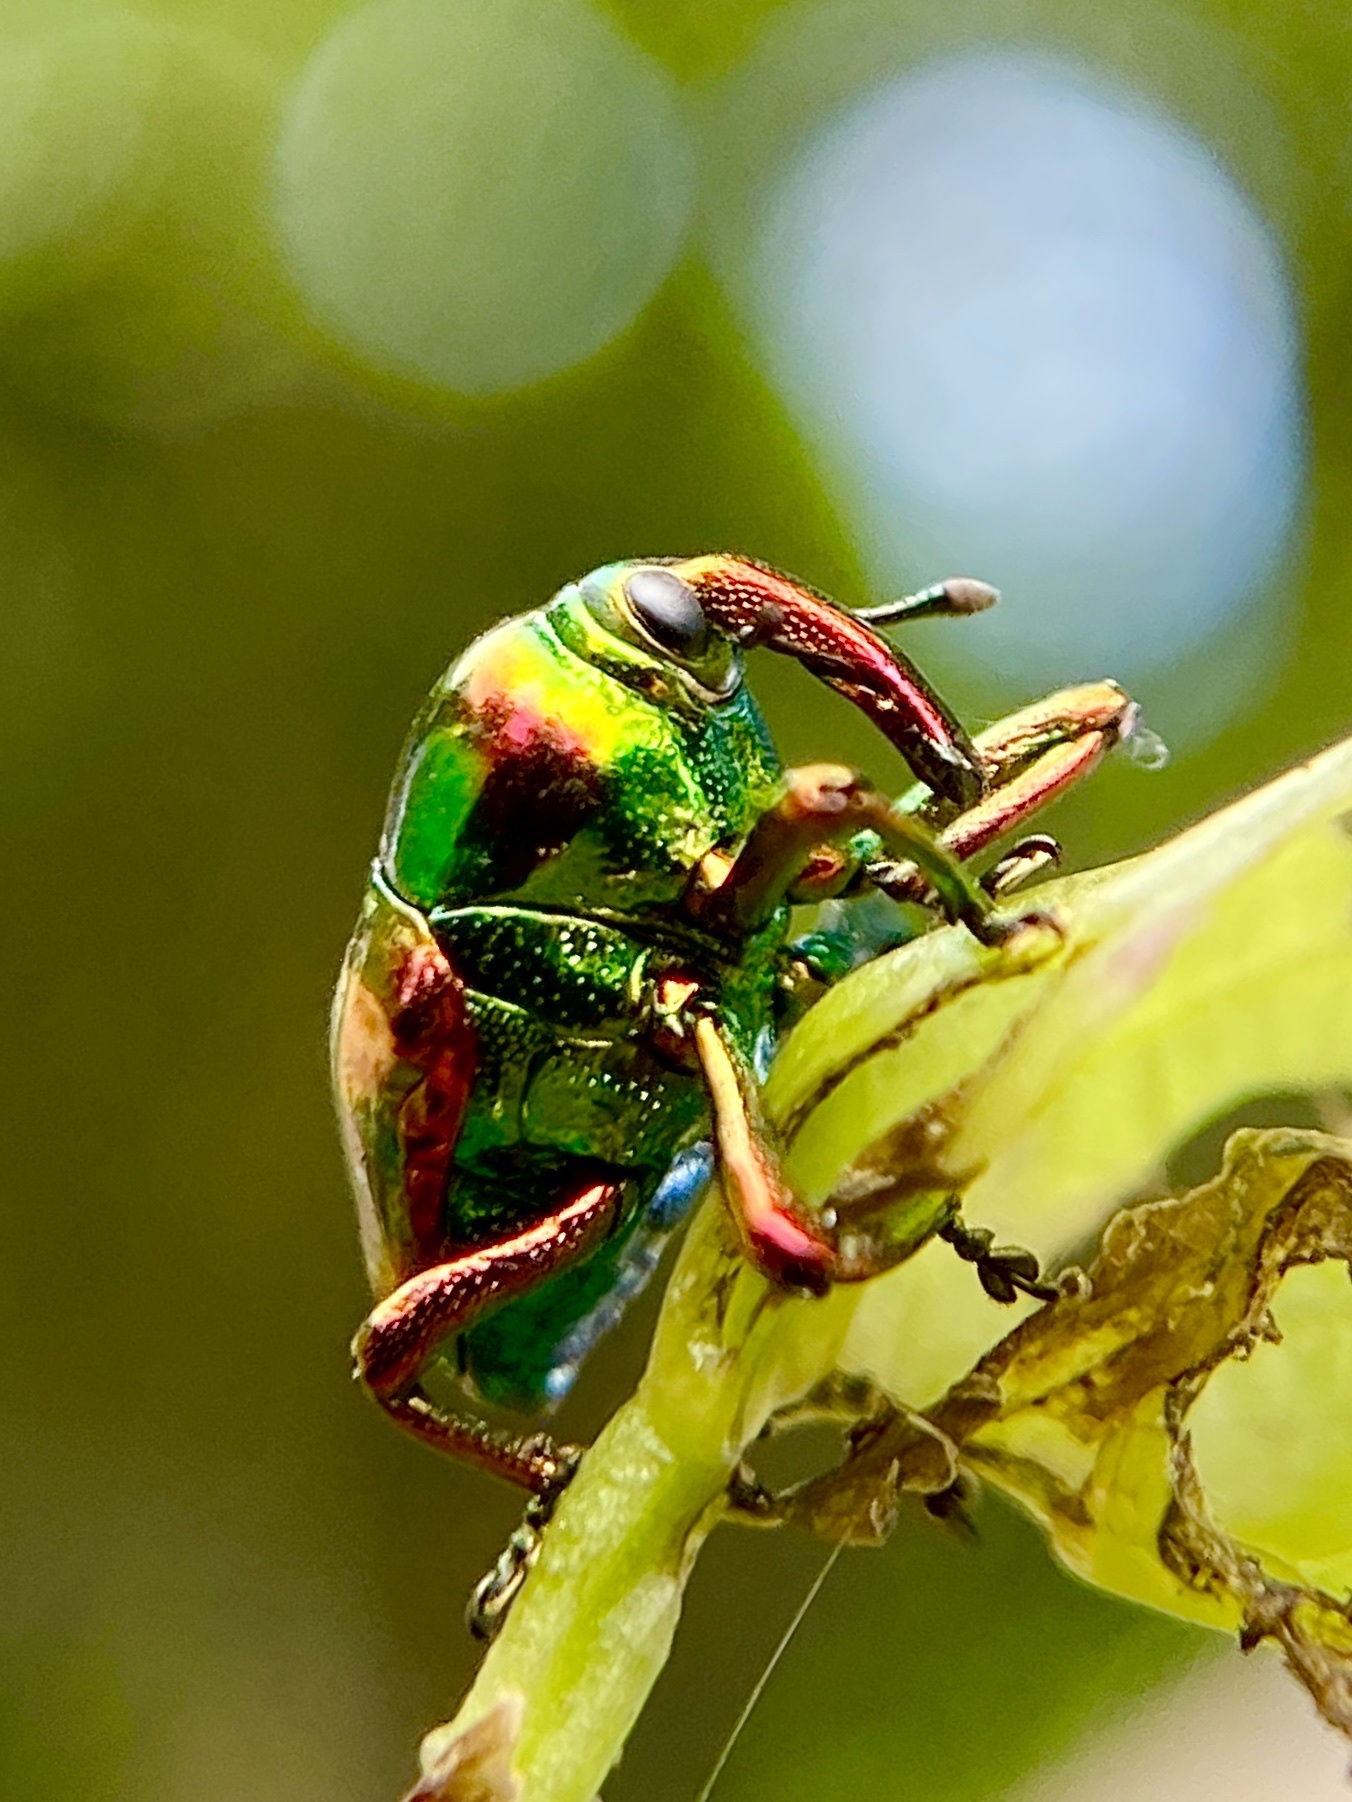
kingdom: Animalia
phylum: Arthropoda
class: Insecta
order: Coleoptera
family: Eurhynchidae
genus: Eurhinus
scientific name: Eurhinus magnificus
